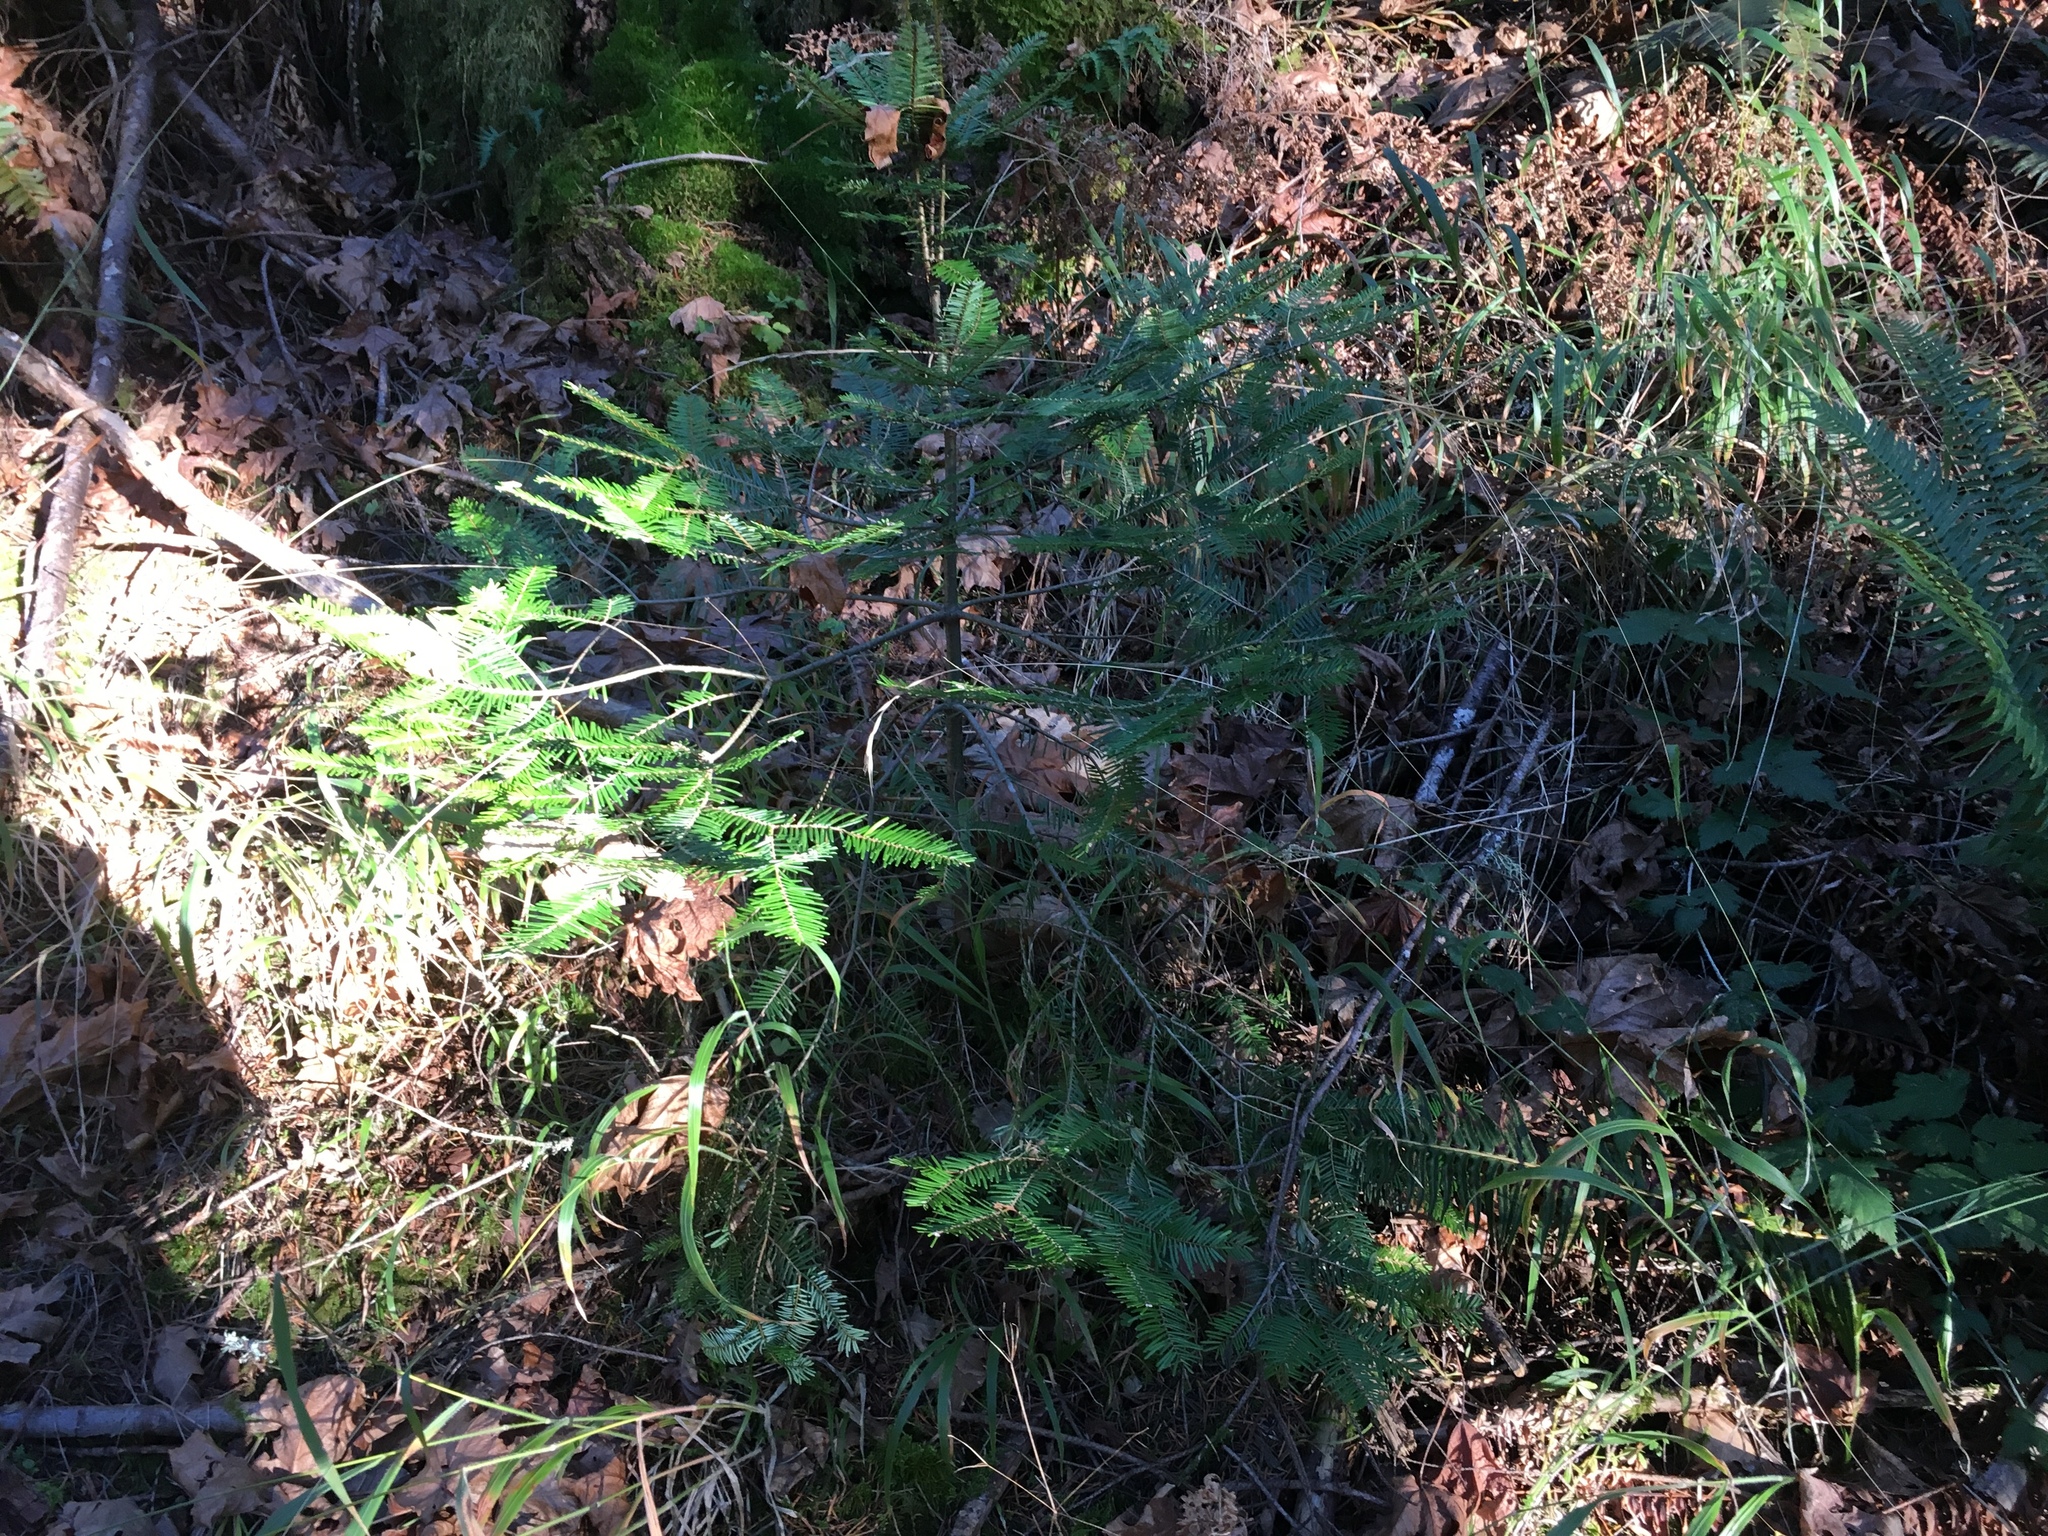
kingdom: Plantae
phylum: Tracheophyta
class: Pinopsida
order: Pinales
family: Pinaceae
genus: Abies
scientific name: Abies grandis
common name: Giant fir
